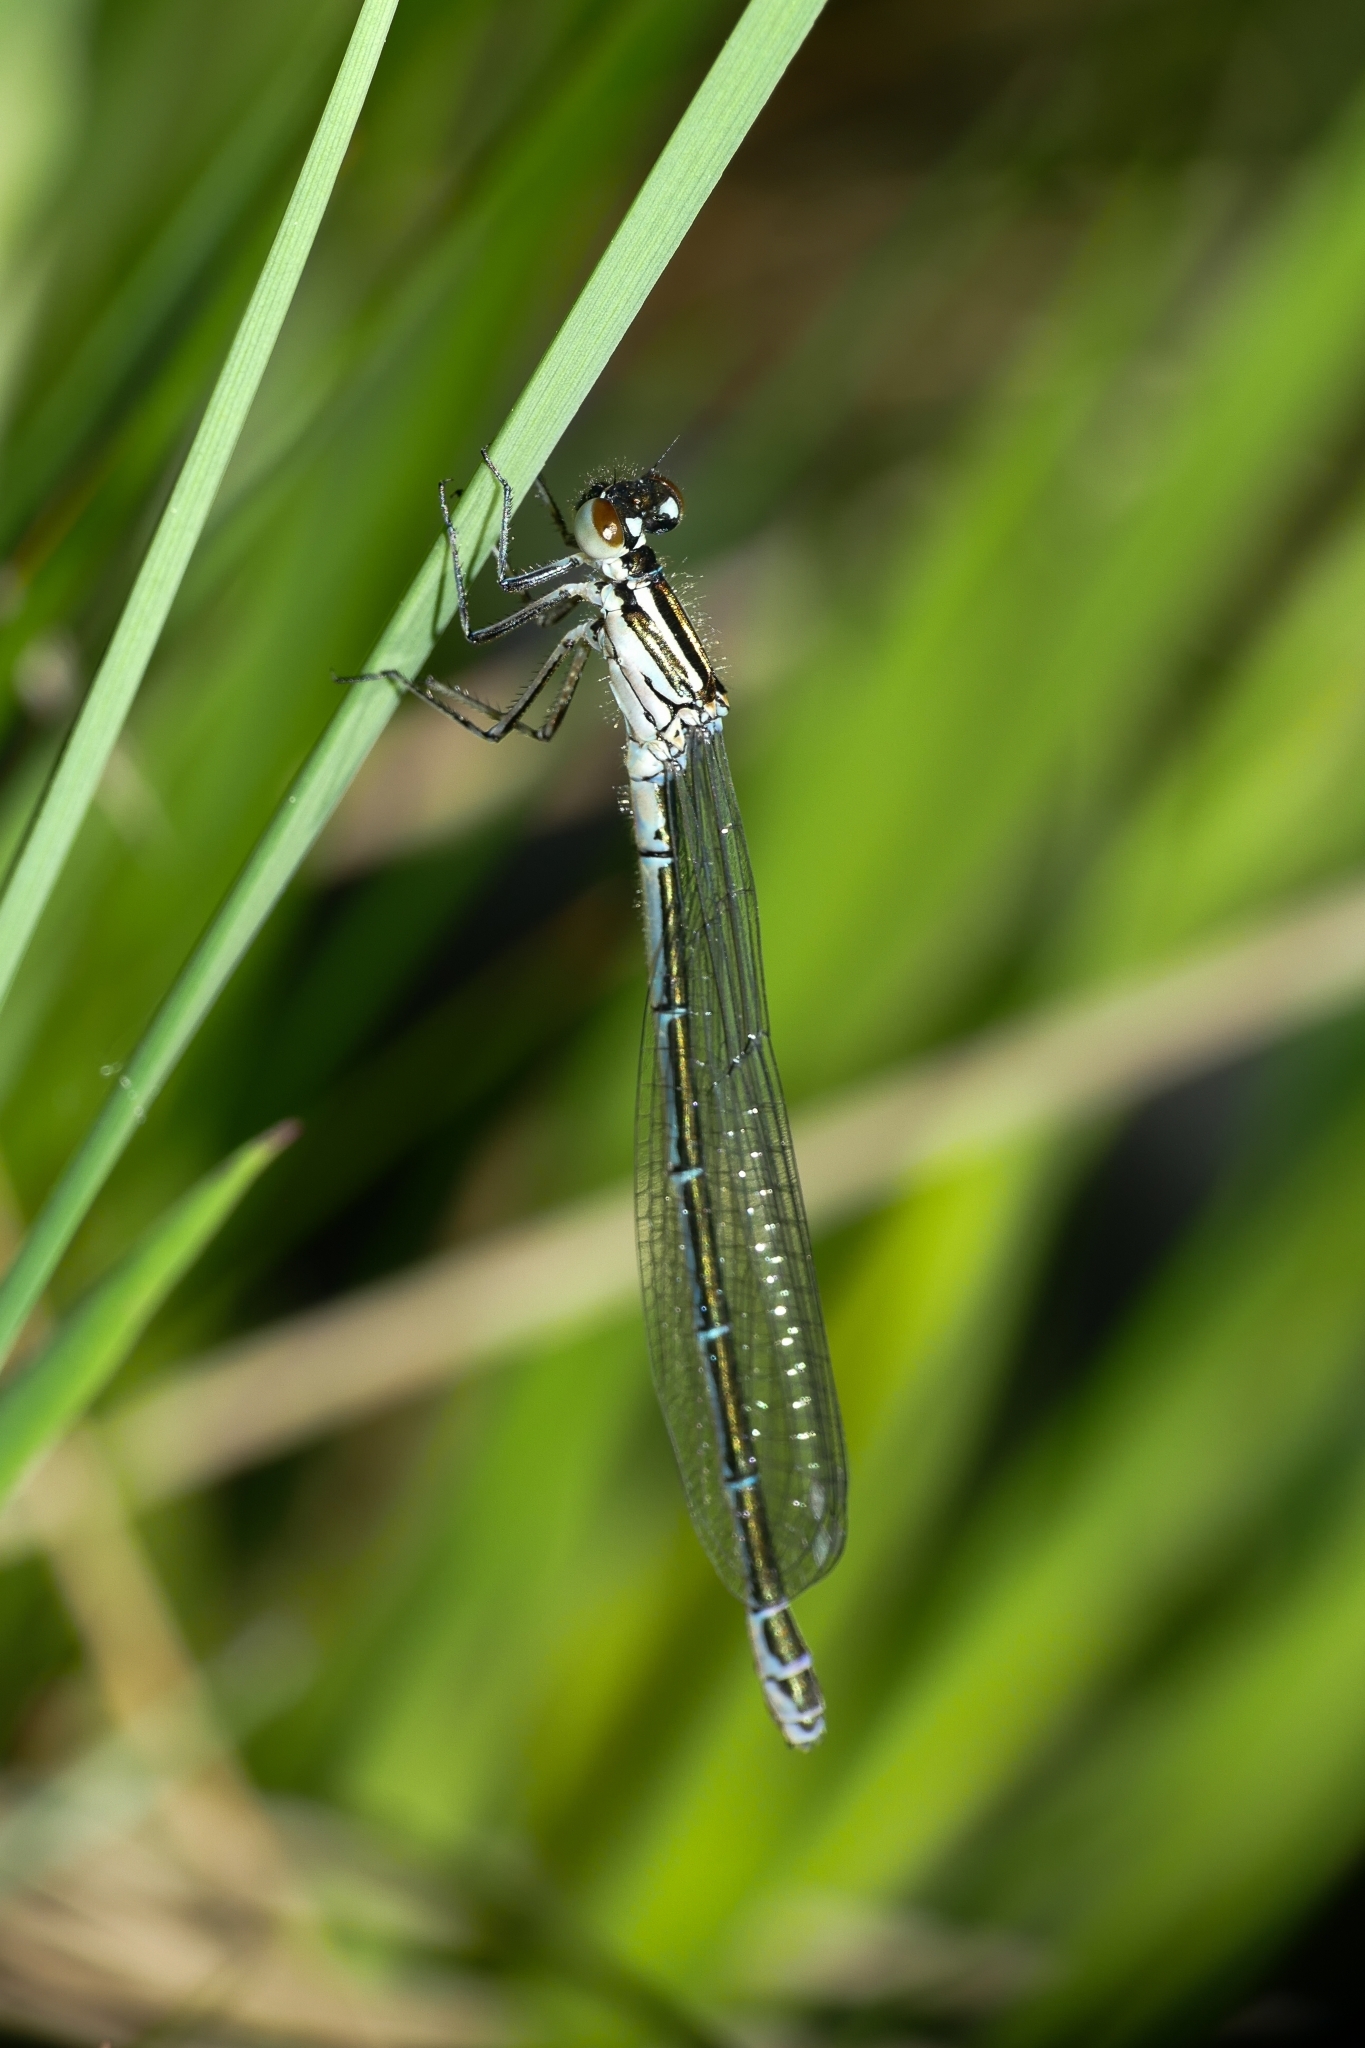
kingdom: Animalia
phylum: Arthropoda
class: Insecta
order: Odonata
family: Coenagrionidae
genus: Coenagrion
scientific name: Coenagrion puella
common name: Azure damselfly
